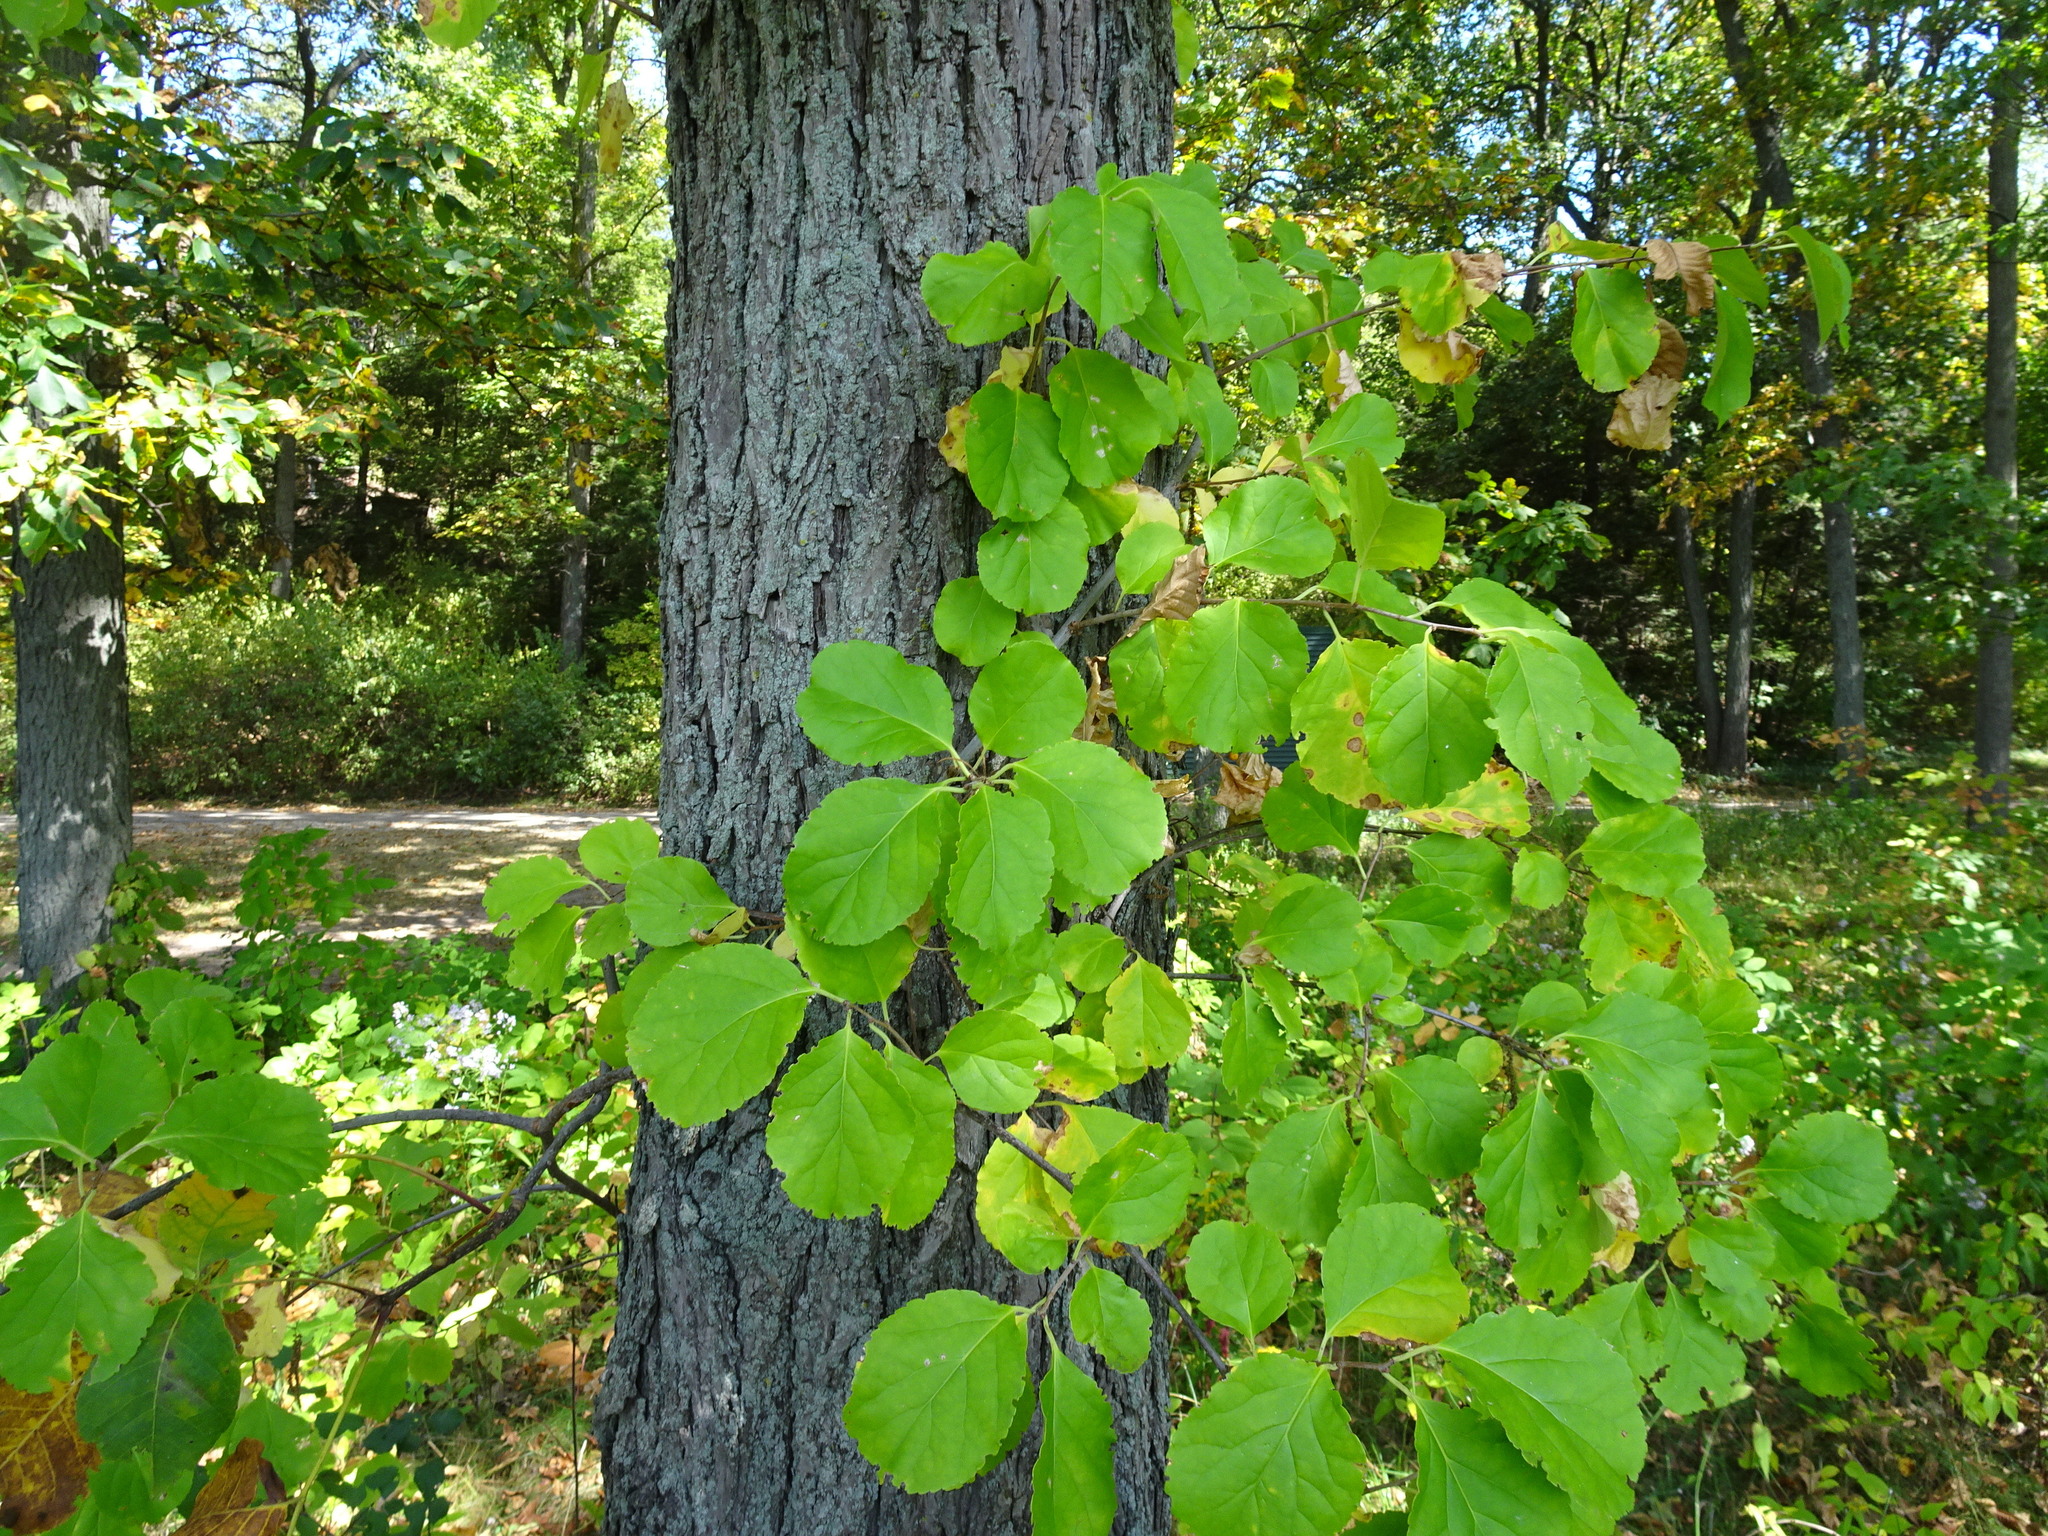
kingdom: Plantae
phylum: Tracheophyta
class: Magnoliopsida
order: Celastrales
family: Celastraceae
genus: Celastrus
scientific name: Celastrus orbiculatus
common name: Oriental bittersweet
